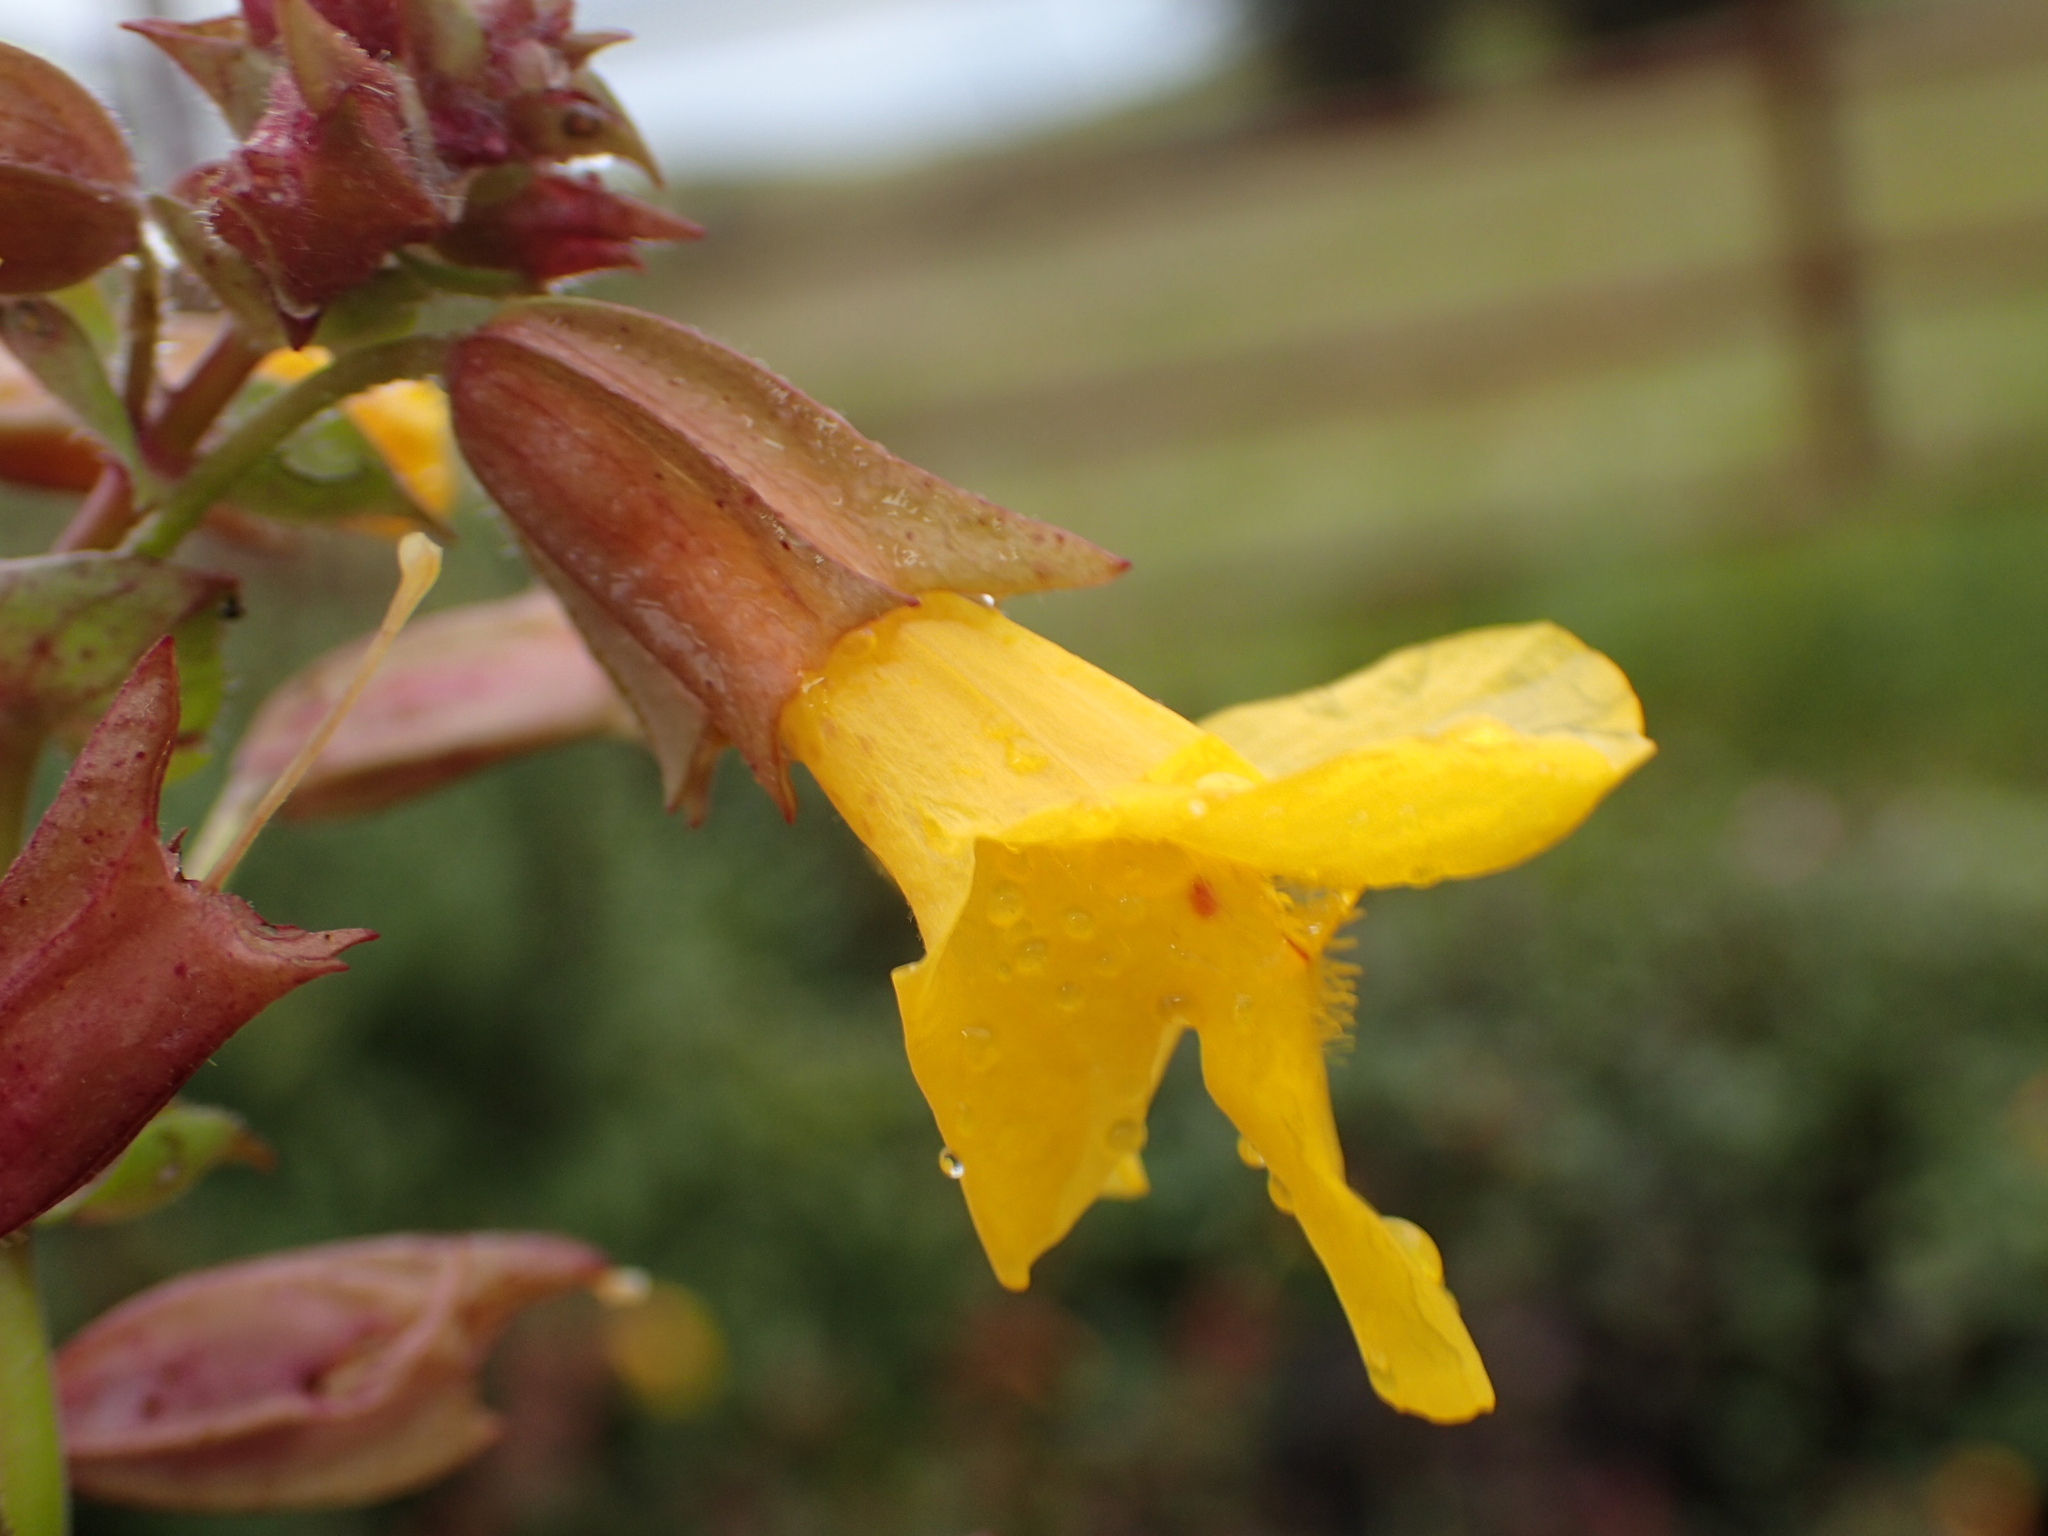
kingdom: Plantae
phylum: Tracheophyta
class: Magnoliopsida
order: Lamiales
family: Phrymaceae
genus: Erythranthe
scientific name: Erythranthe guttata
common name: Monkeyflower
